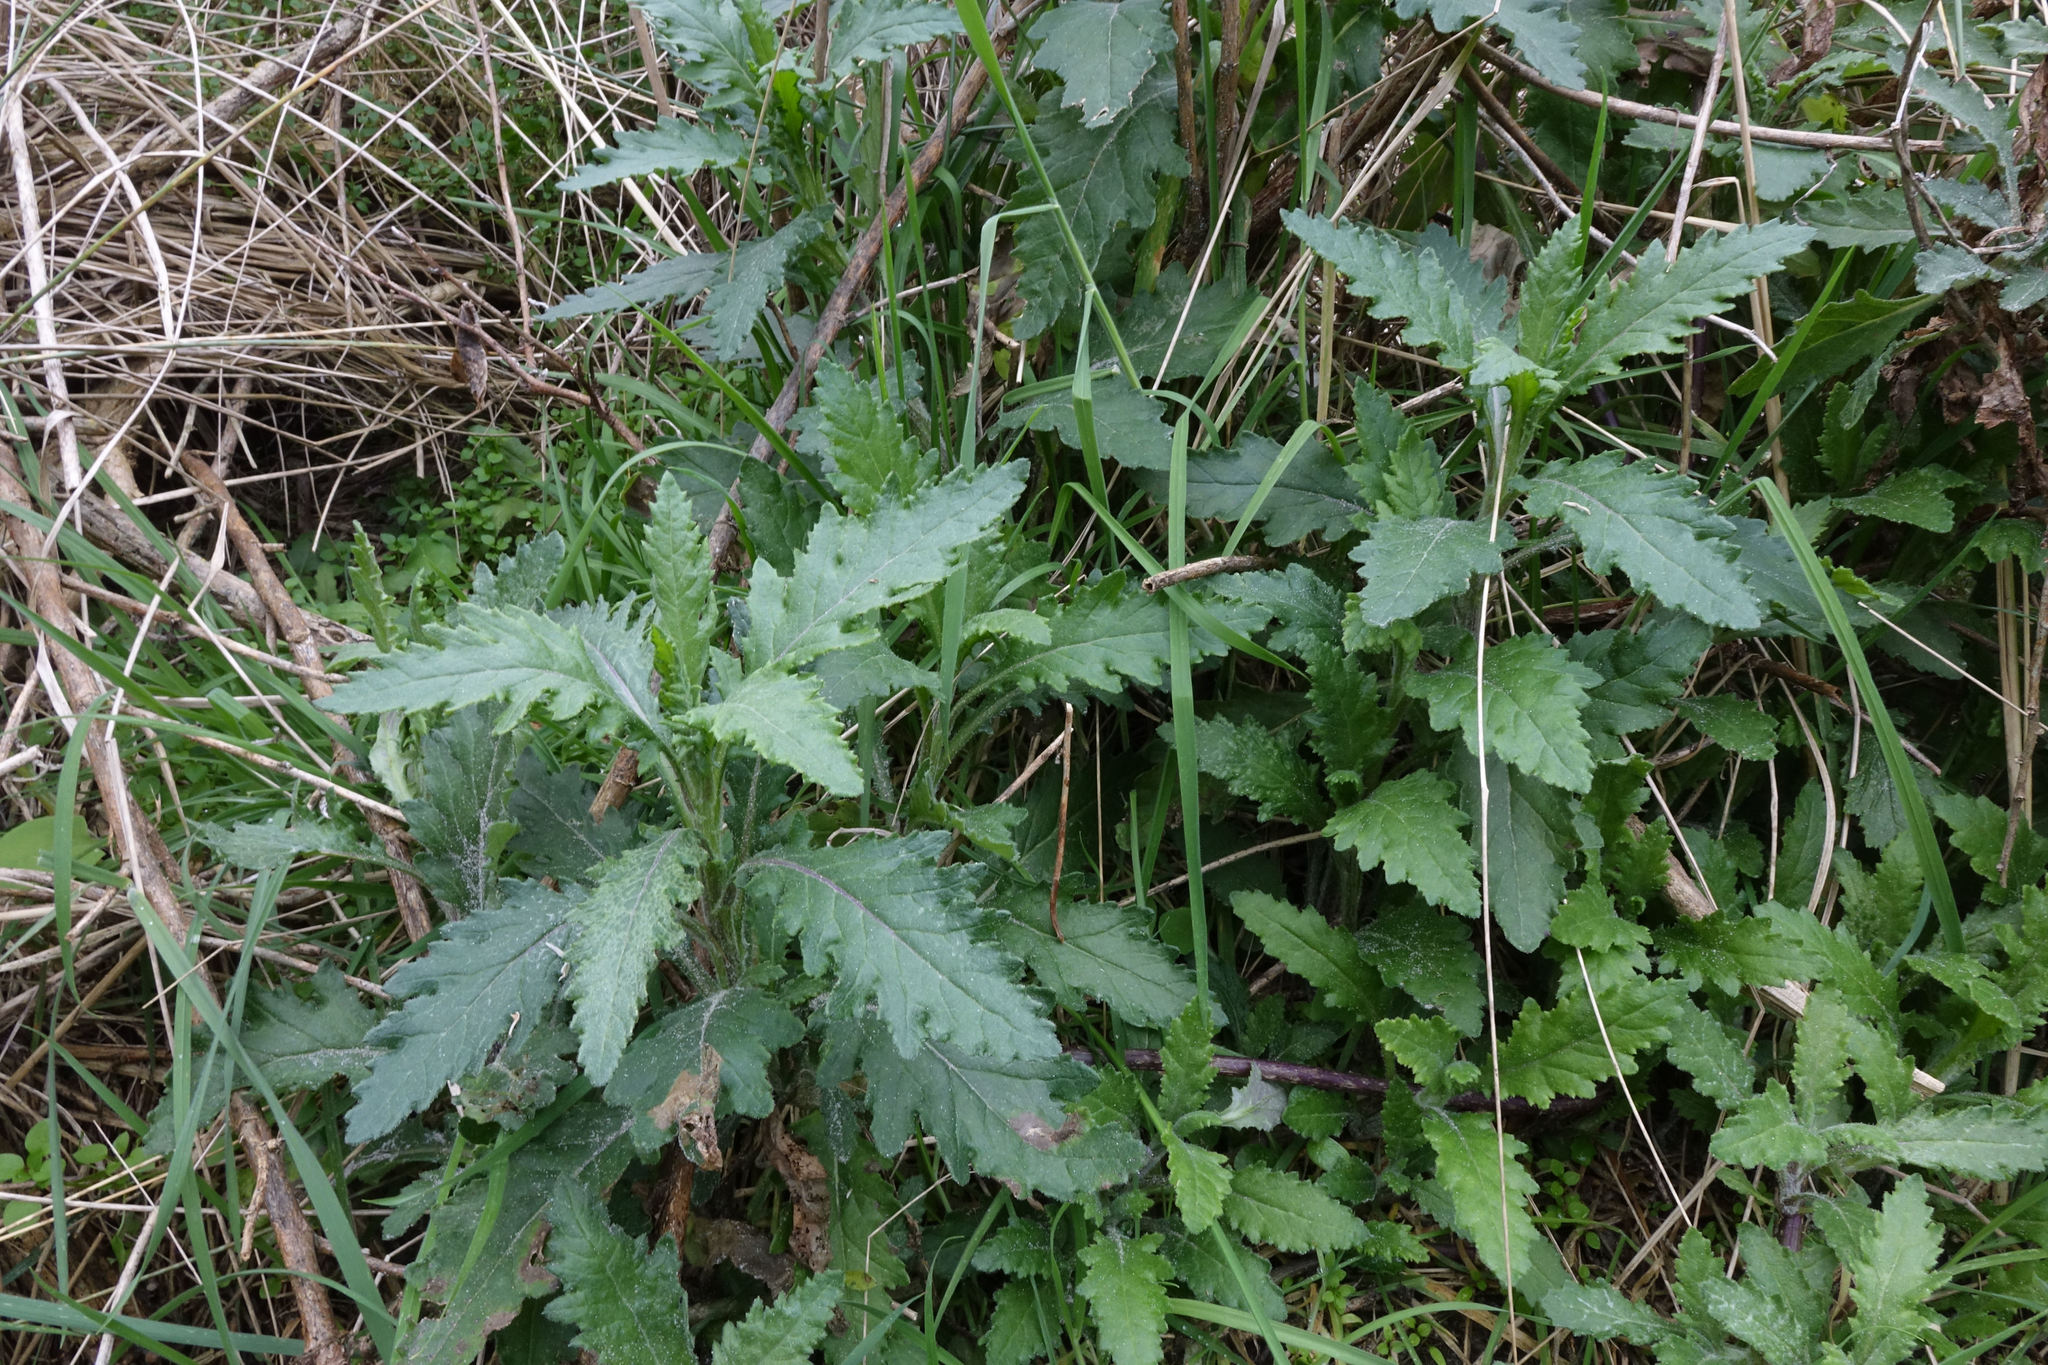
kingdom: Plantae
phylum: Tracheophyta
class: Magnoliopsida
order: Asterales
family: Asteraceae
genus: Senecio
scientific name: Senecio biserratus
